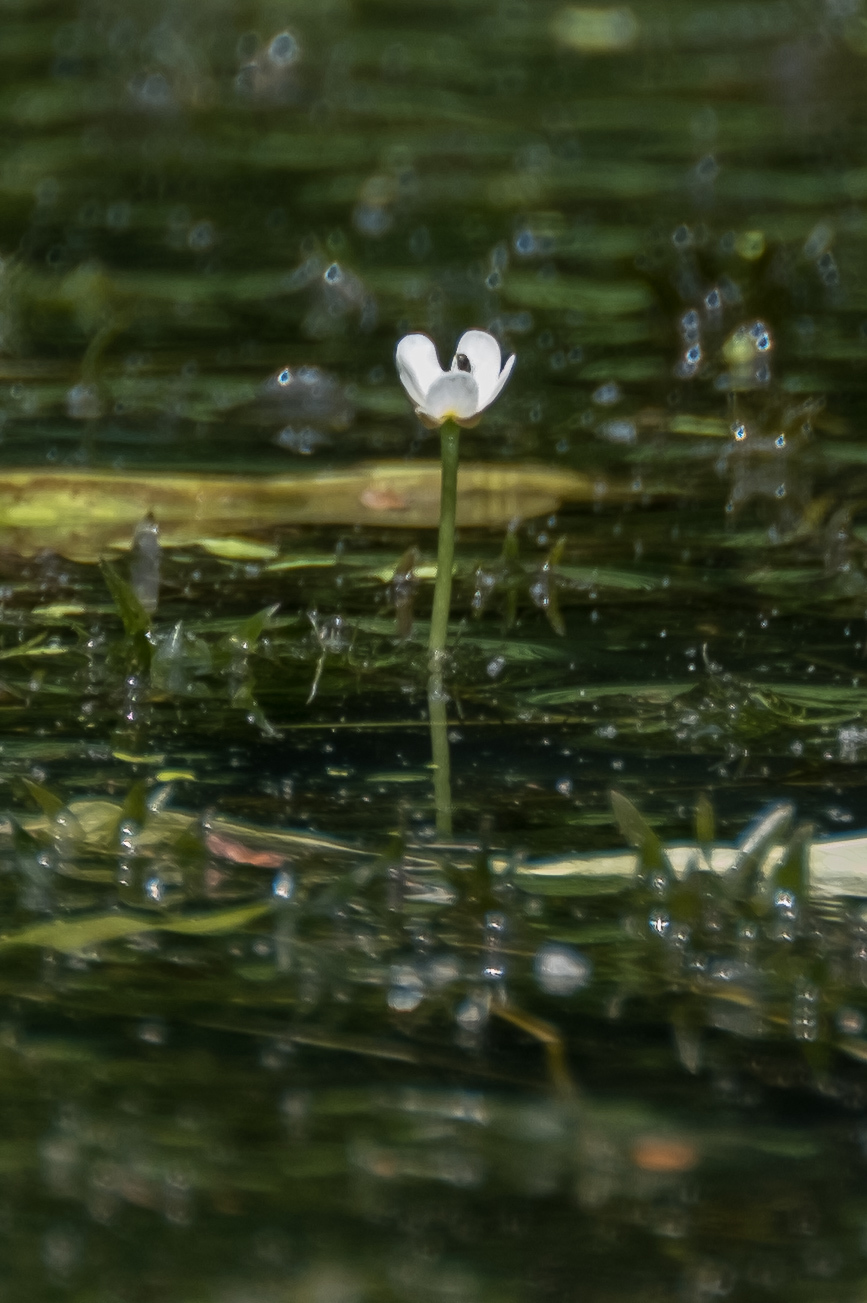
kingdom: Plantae
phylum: Tracheophyta
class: Magnoliopsida
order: Ranunculales
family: Ranunculaceae
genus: Ranunculus
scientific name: Ranunculus aquatilis
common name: Common water-crowfoot
